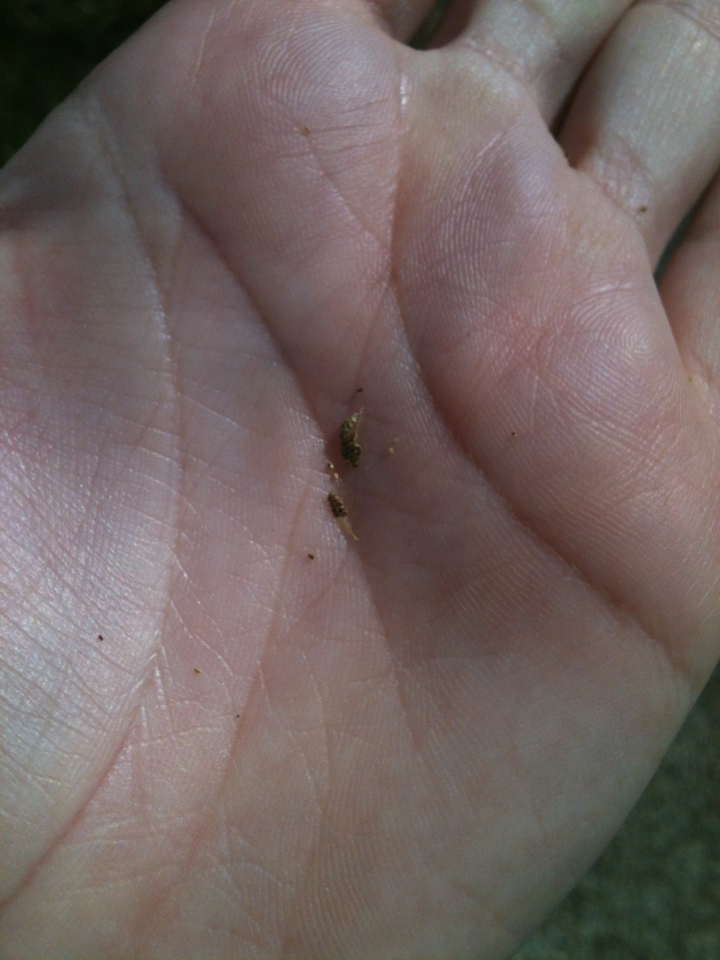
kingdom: Plantae
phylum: Tracheophyta
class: Liliopsida
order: Poales
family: Cyperaceae
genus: Cyperus
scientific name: Cyperus difformis
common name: Variable flatsedge
